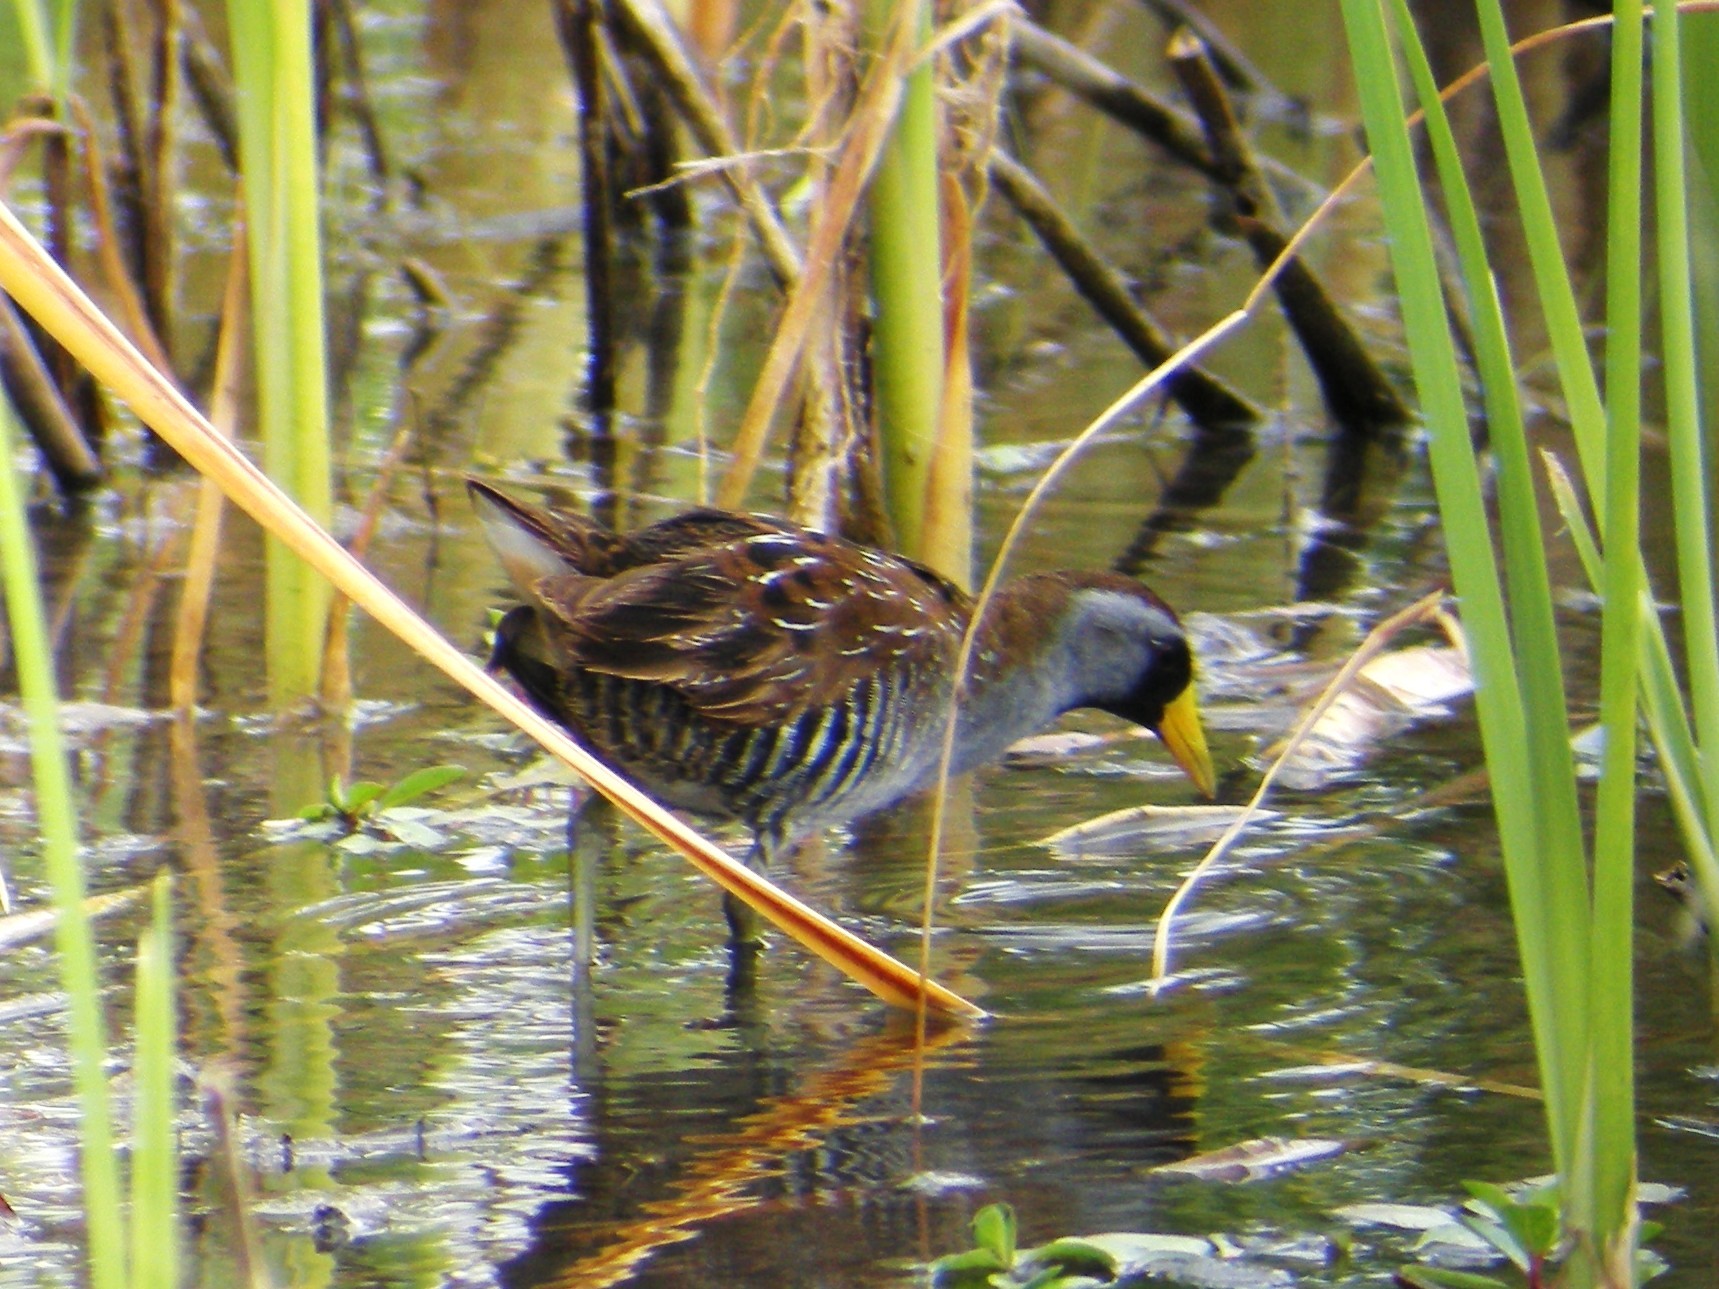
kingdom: Animalia
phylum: Chordata
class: Aves
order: Gruiformes
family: Rallidae
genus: Porzana
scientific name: Porzana carolina
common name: Sora
